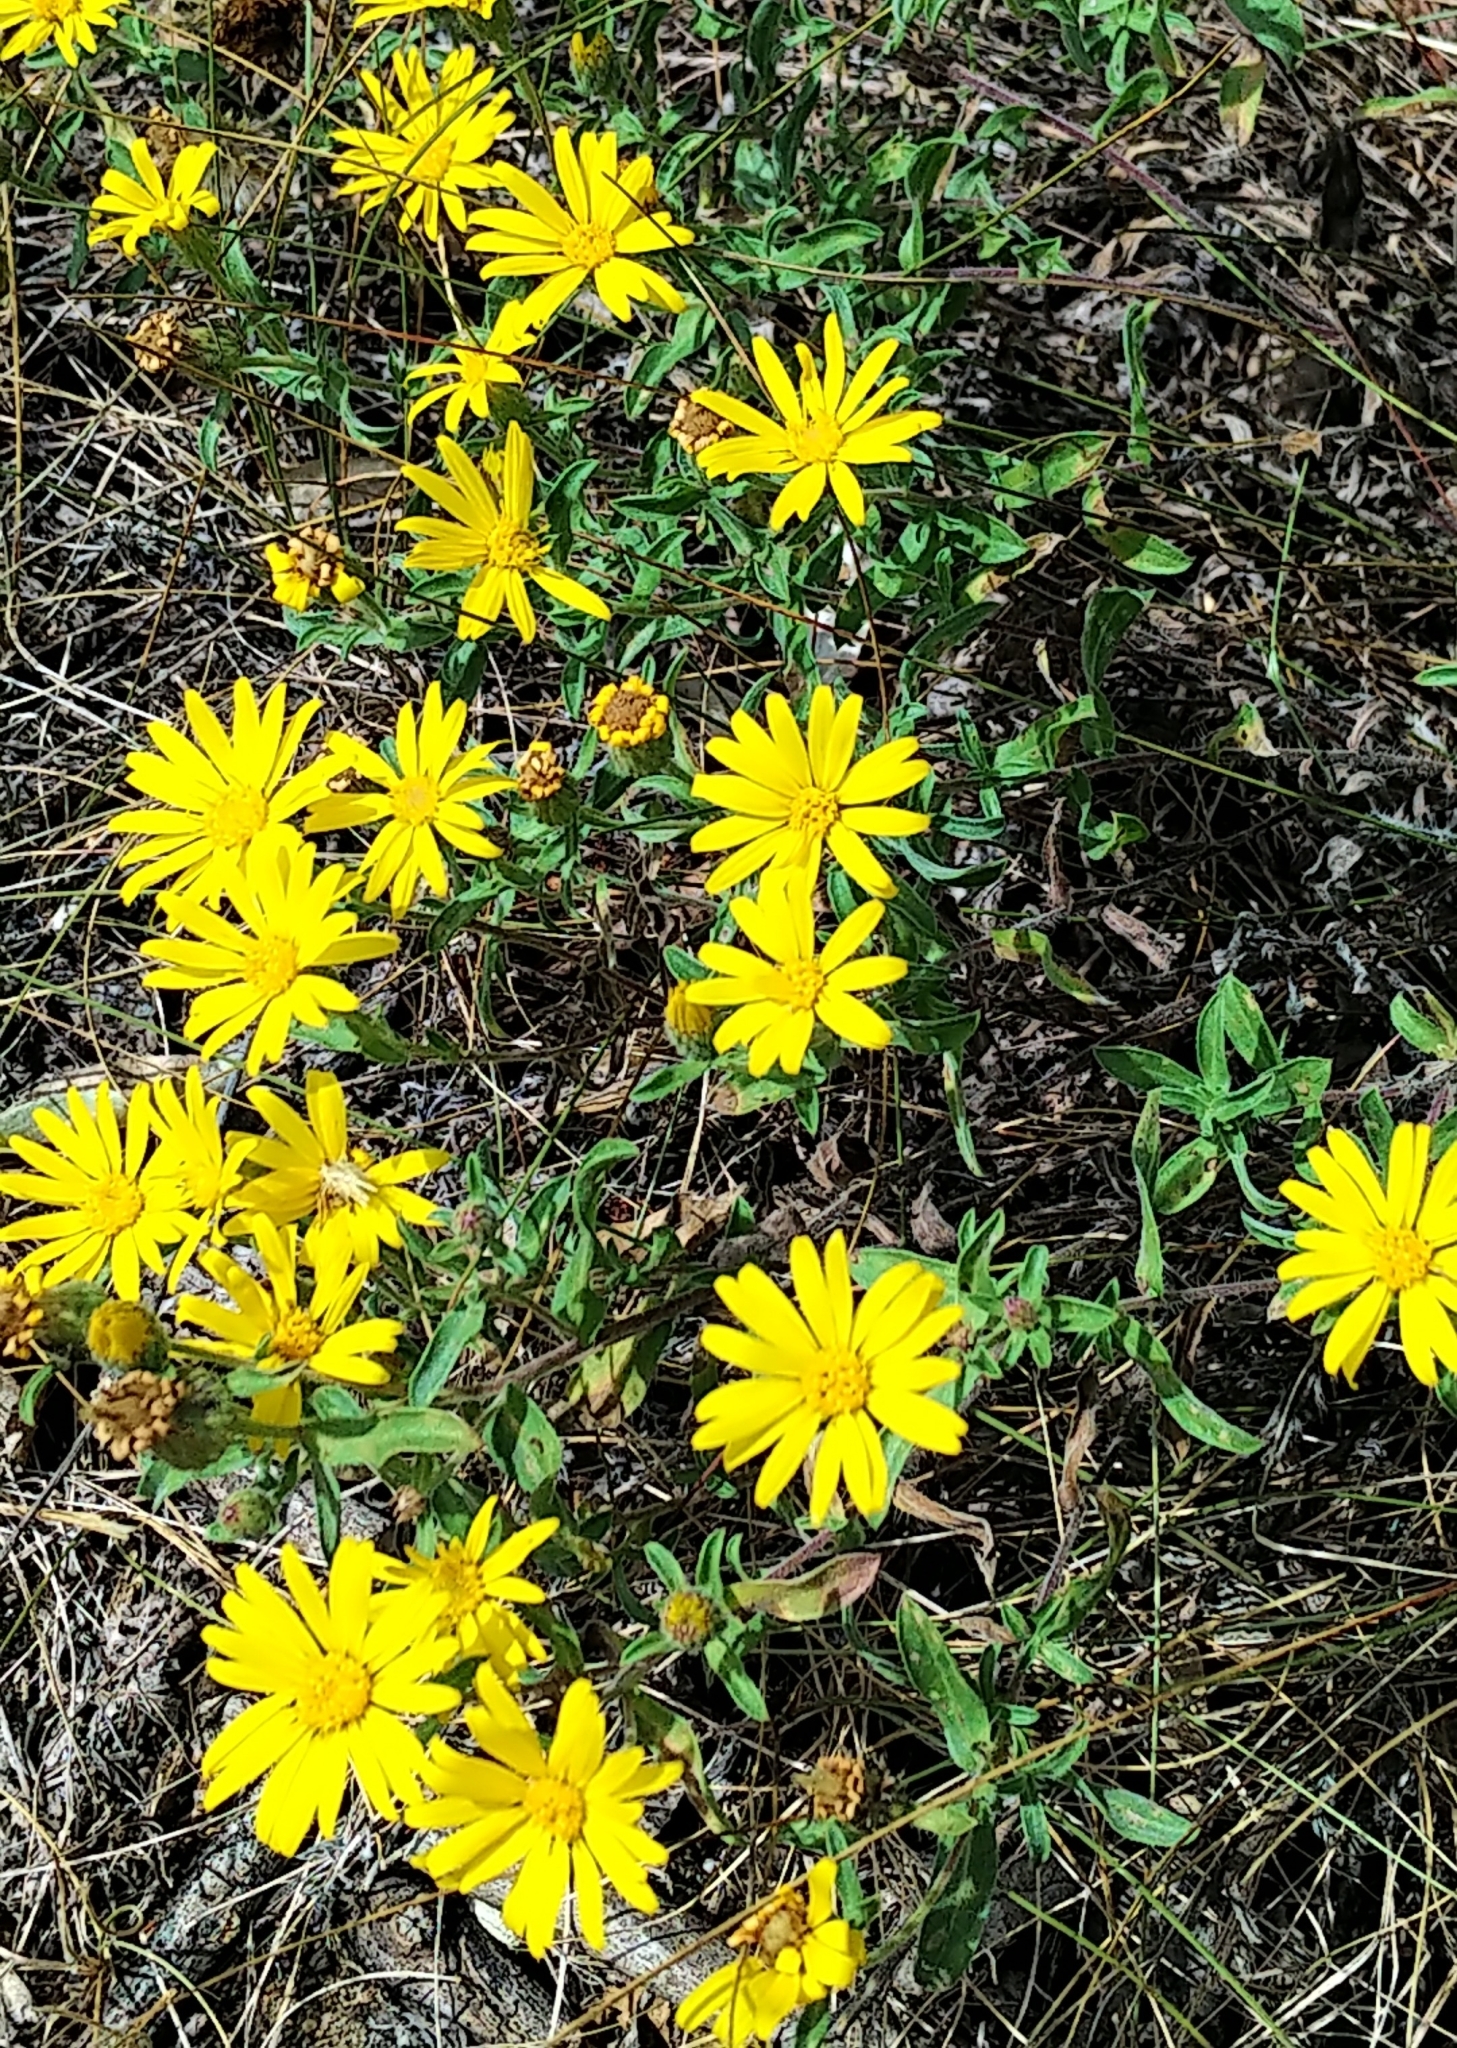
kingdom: Plantae
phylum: Tracheophyta
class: Magnoliopsida
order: Asterales
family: Asteraceae
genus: Heterotheca
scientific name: Heterotheca villosa
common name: Hairy false goldenaster
